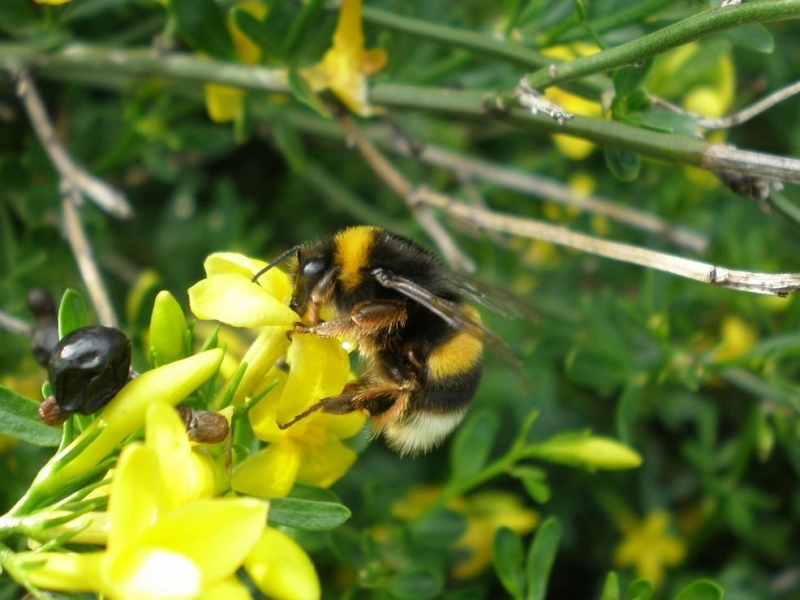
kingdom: Animalia
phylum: Arthropoda
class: Insecta
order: Hymenoptera
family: Apidae
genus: Bombus
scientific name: Bombus terrestris
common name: Buff-tailed bumblebee
